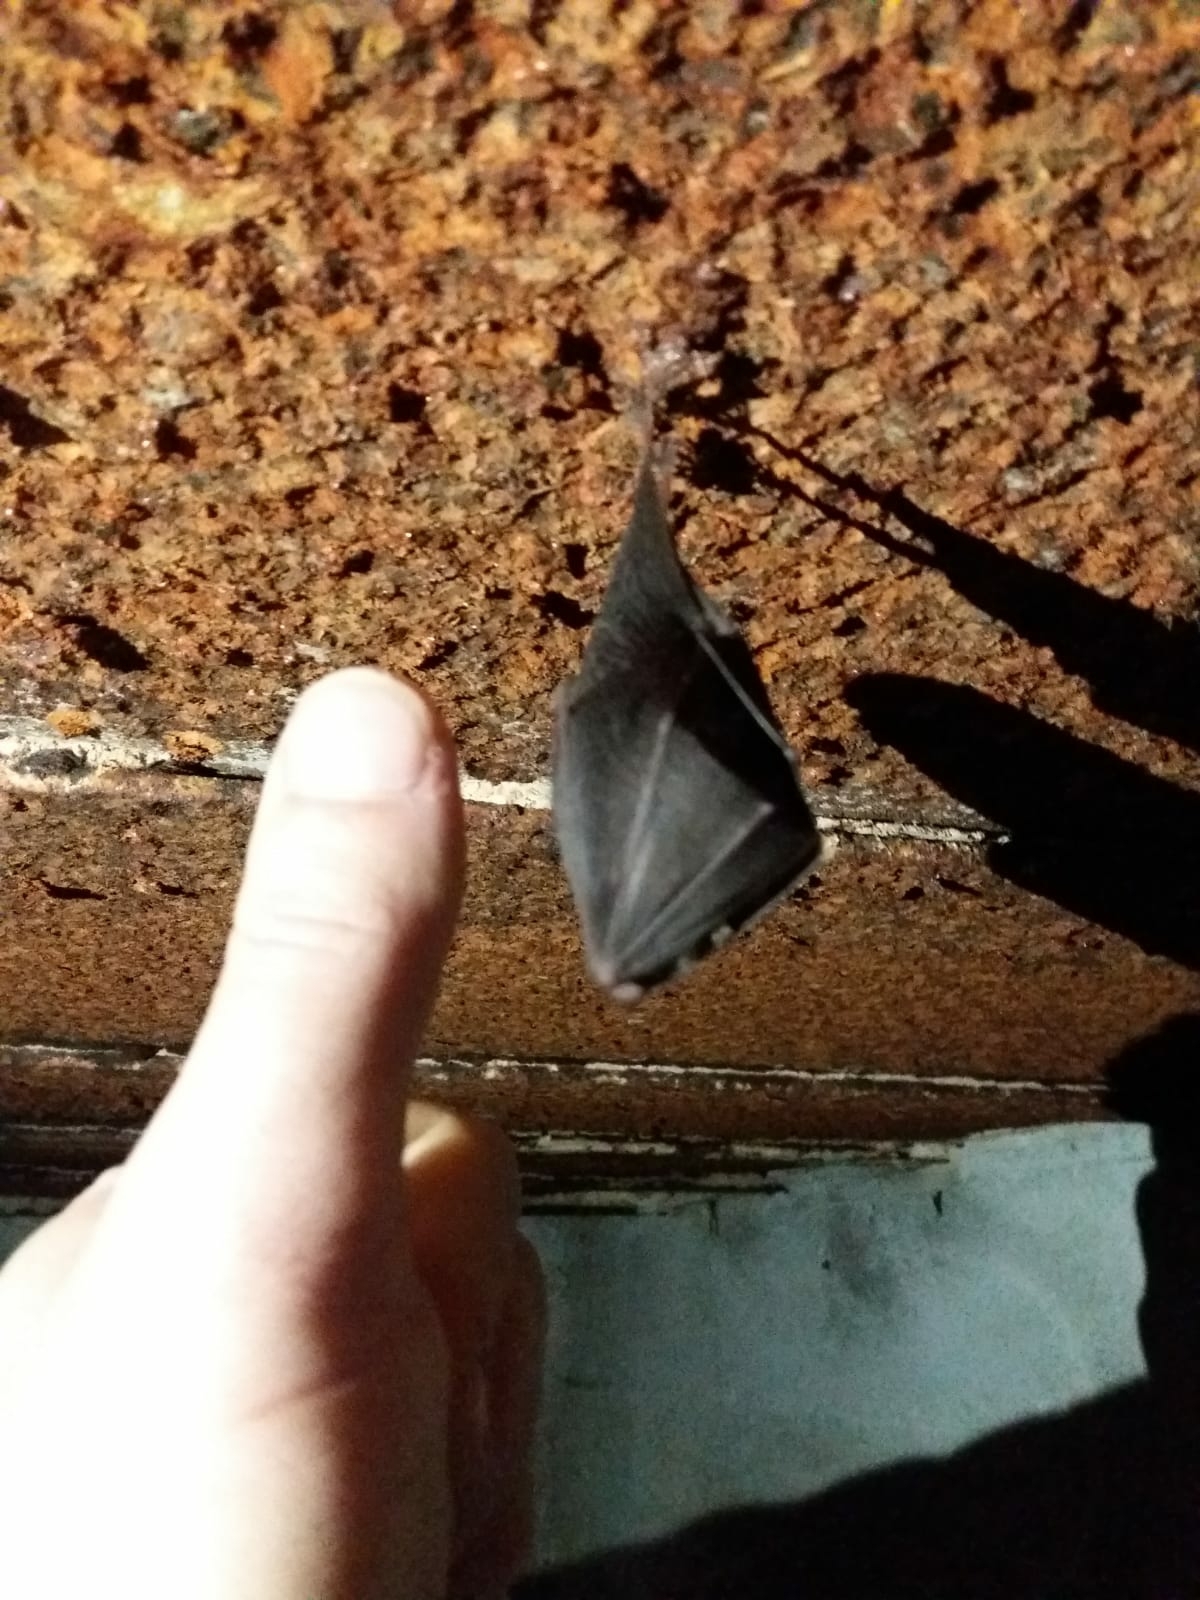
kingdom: Animalia
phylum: Chordata
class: Mammalia
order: Chiroptera
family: Rhinolophidae
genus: Rhinolophus
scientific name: Rhinolophus hipposideros
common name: Lesser horseshoe bat
